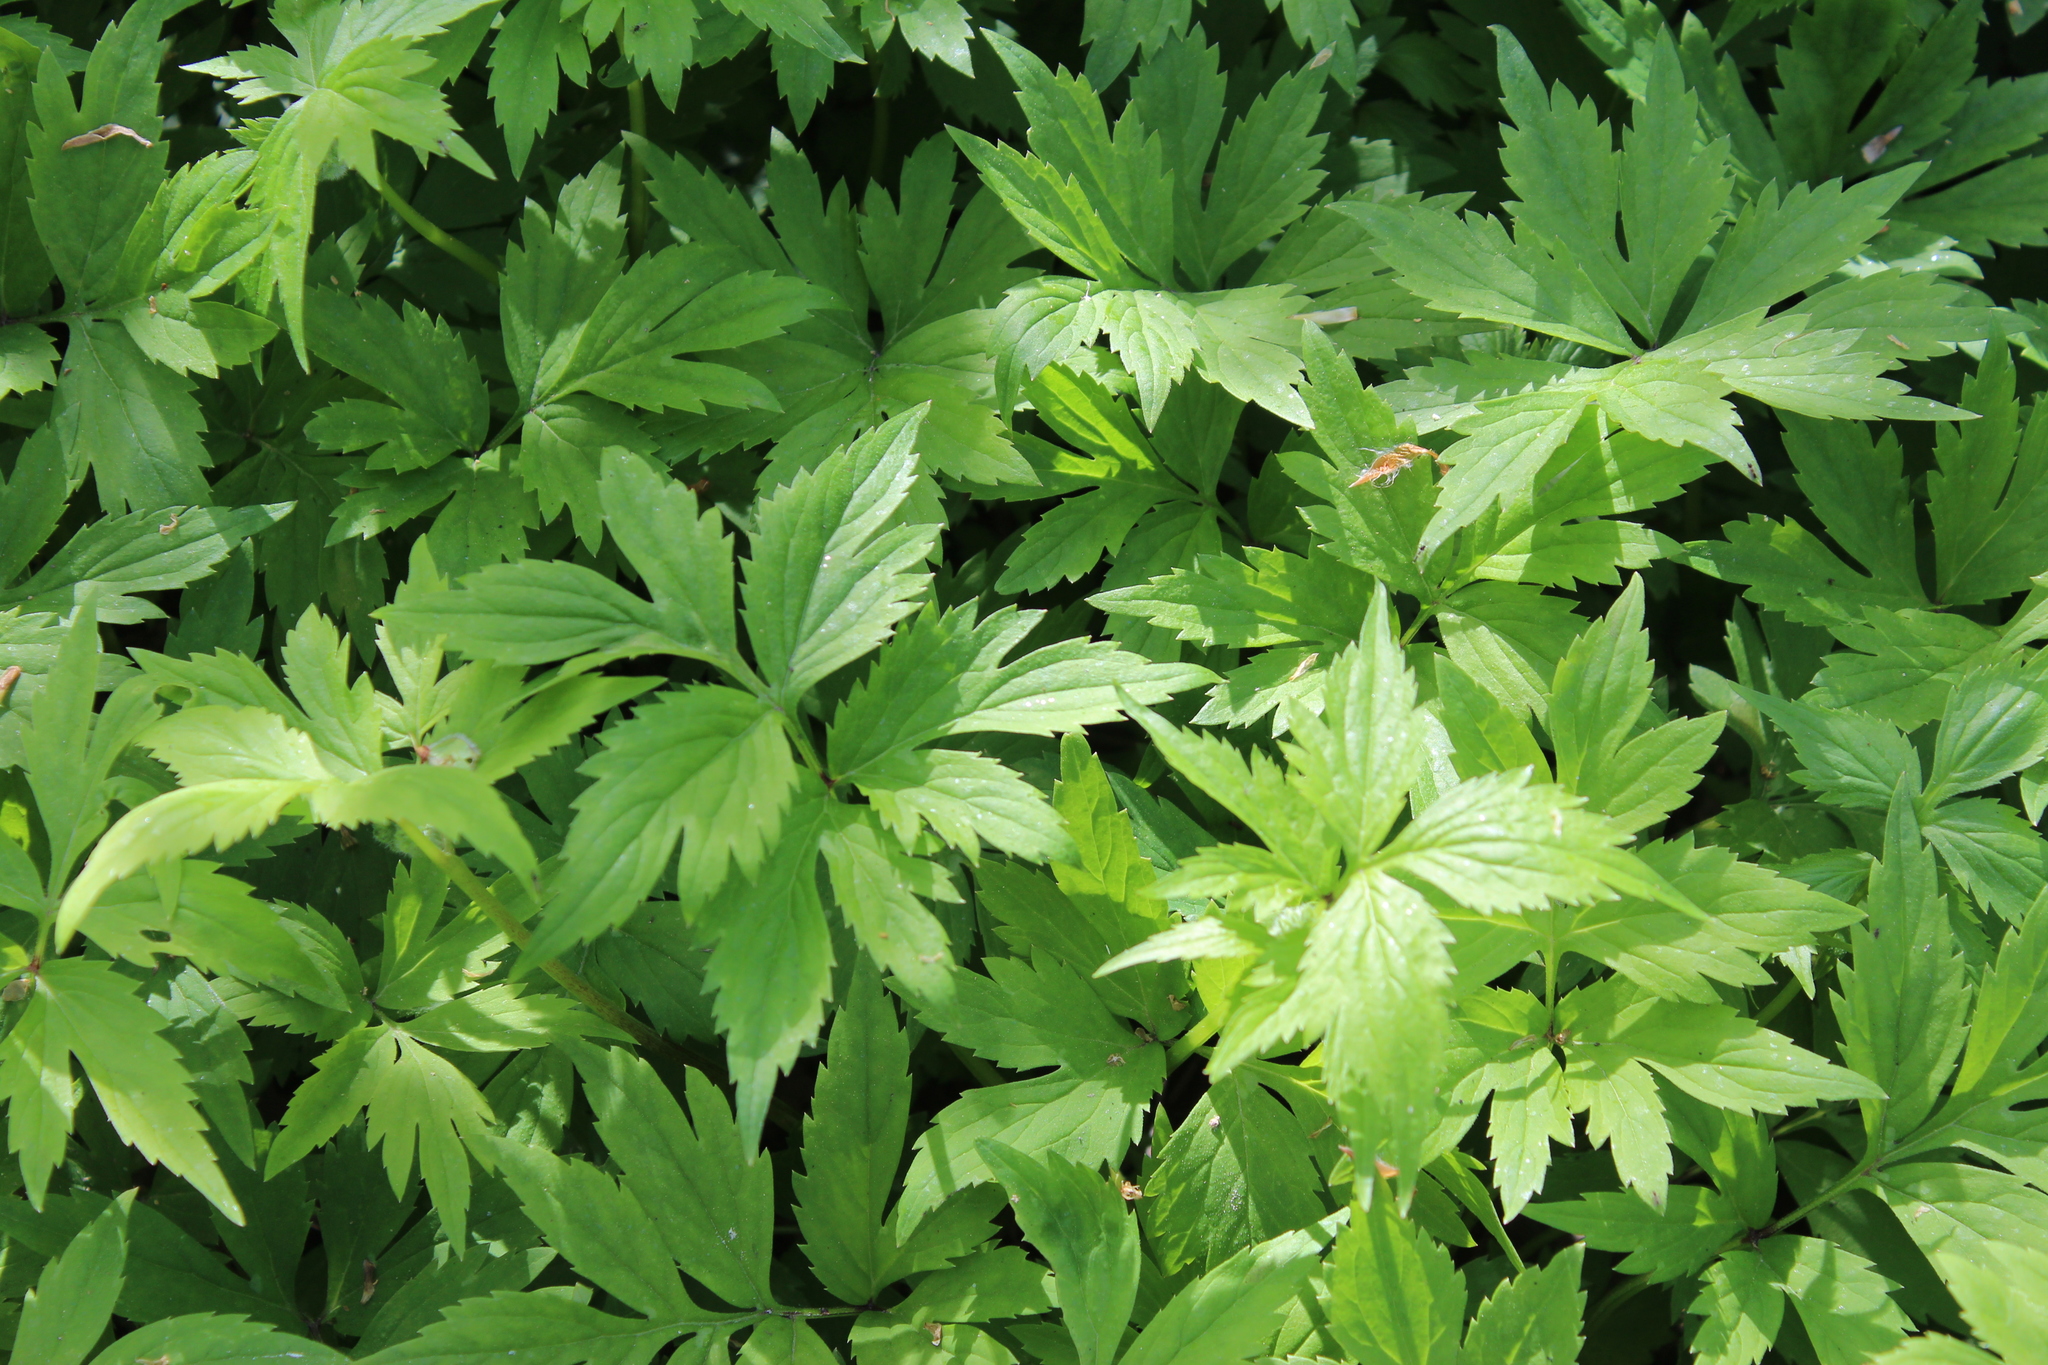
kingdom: Plantae
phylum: Tracheophyta
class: Magnoliopsida
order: Boraginales
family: Hydrophyllaceae
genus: Hydrophyllum
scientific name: Hydrophyllum virginianum
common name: Virginia waterleaf
